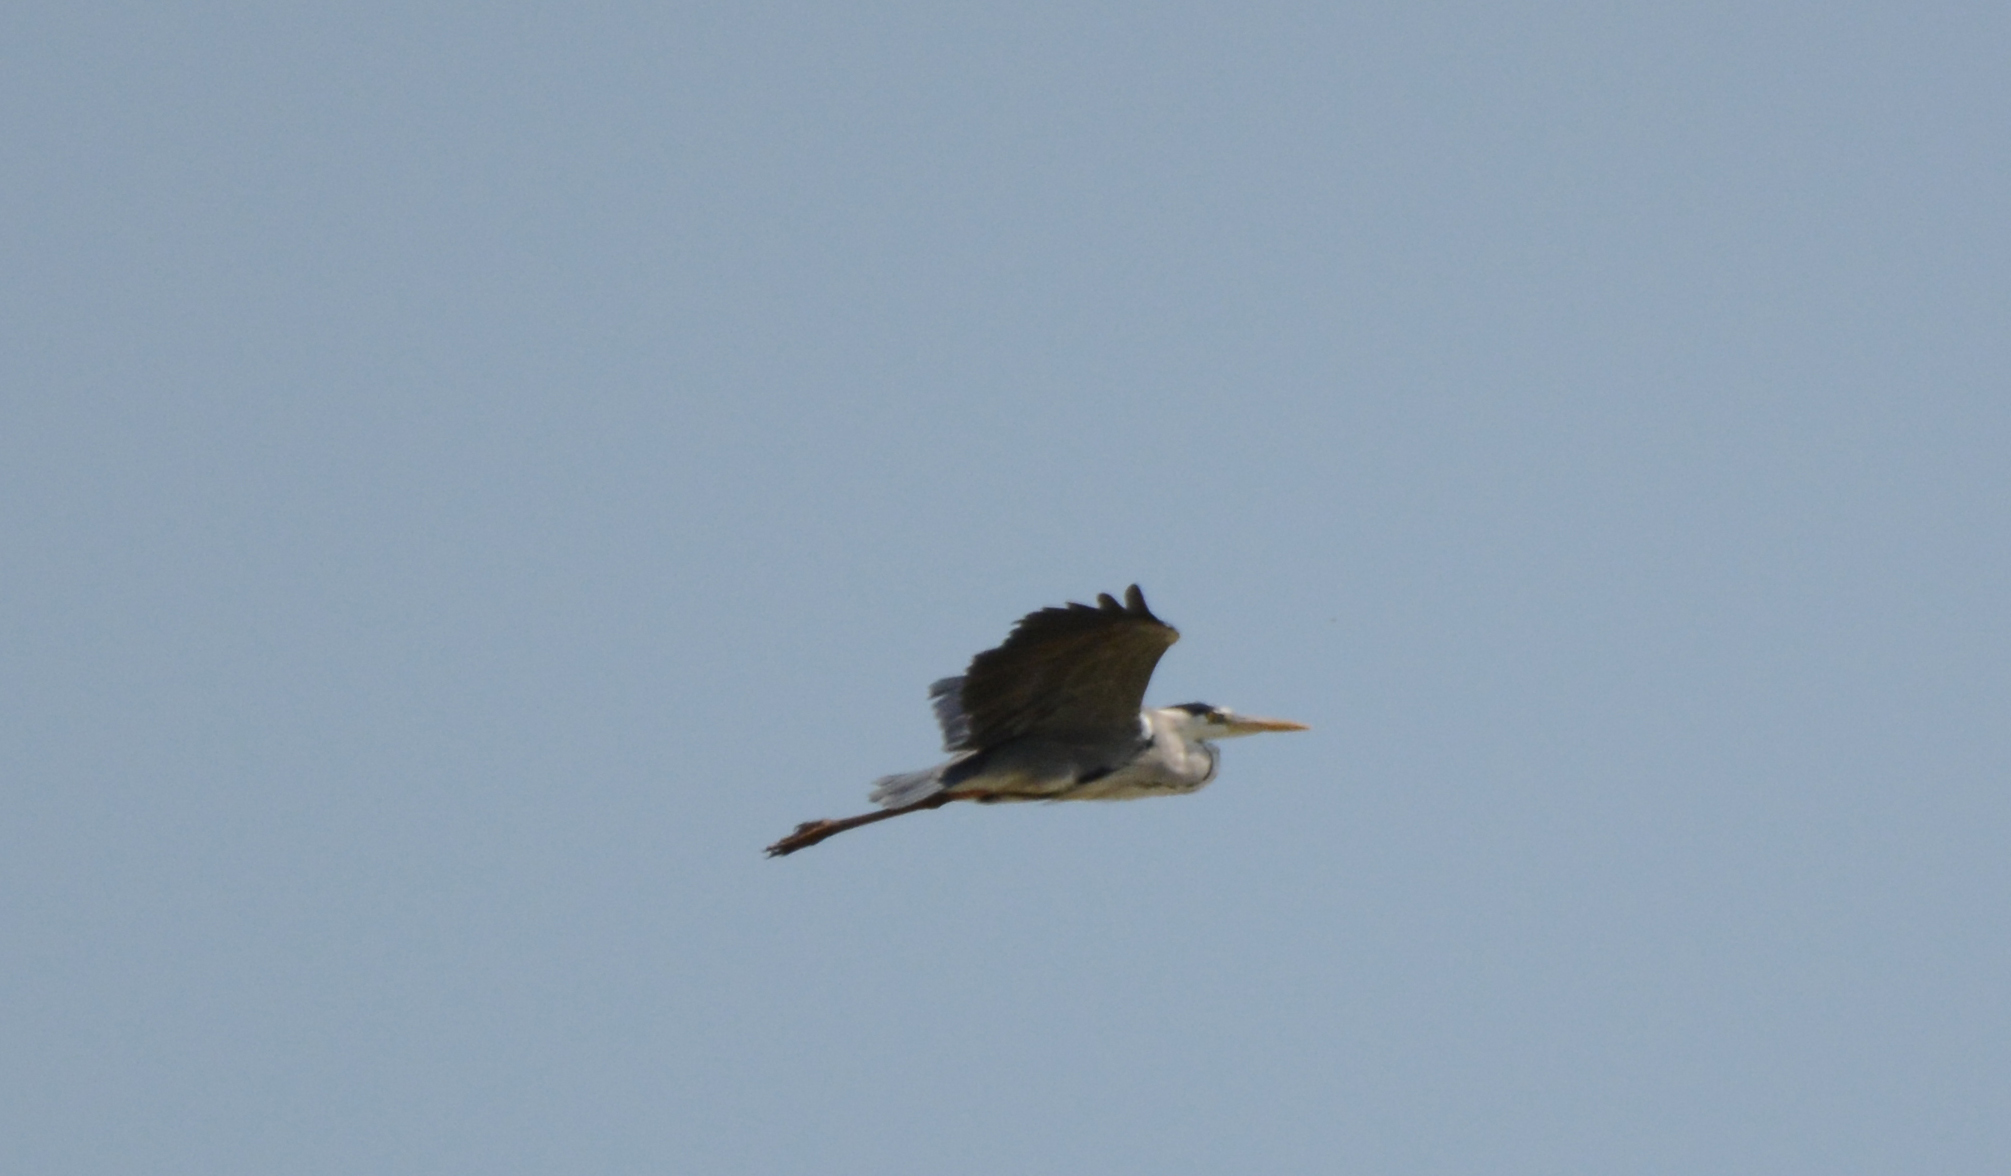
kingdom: Animalia
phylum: Chordata
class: Aves
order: Pelecaniformes
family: Ardeidae
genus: Ardea
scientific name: Ardea cinerea
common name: Grey heron
